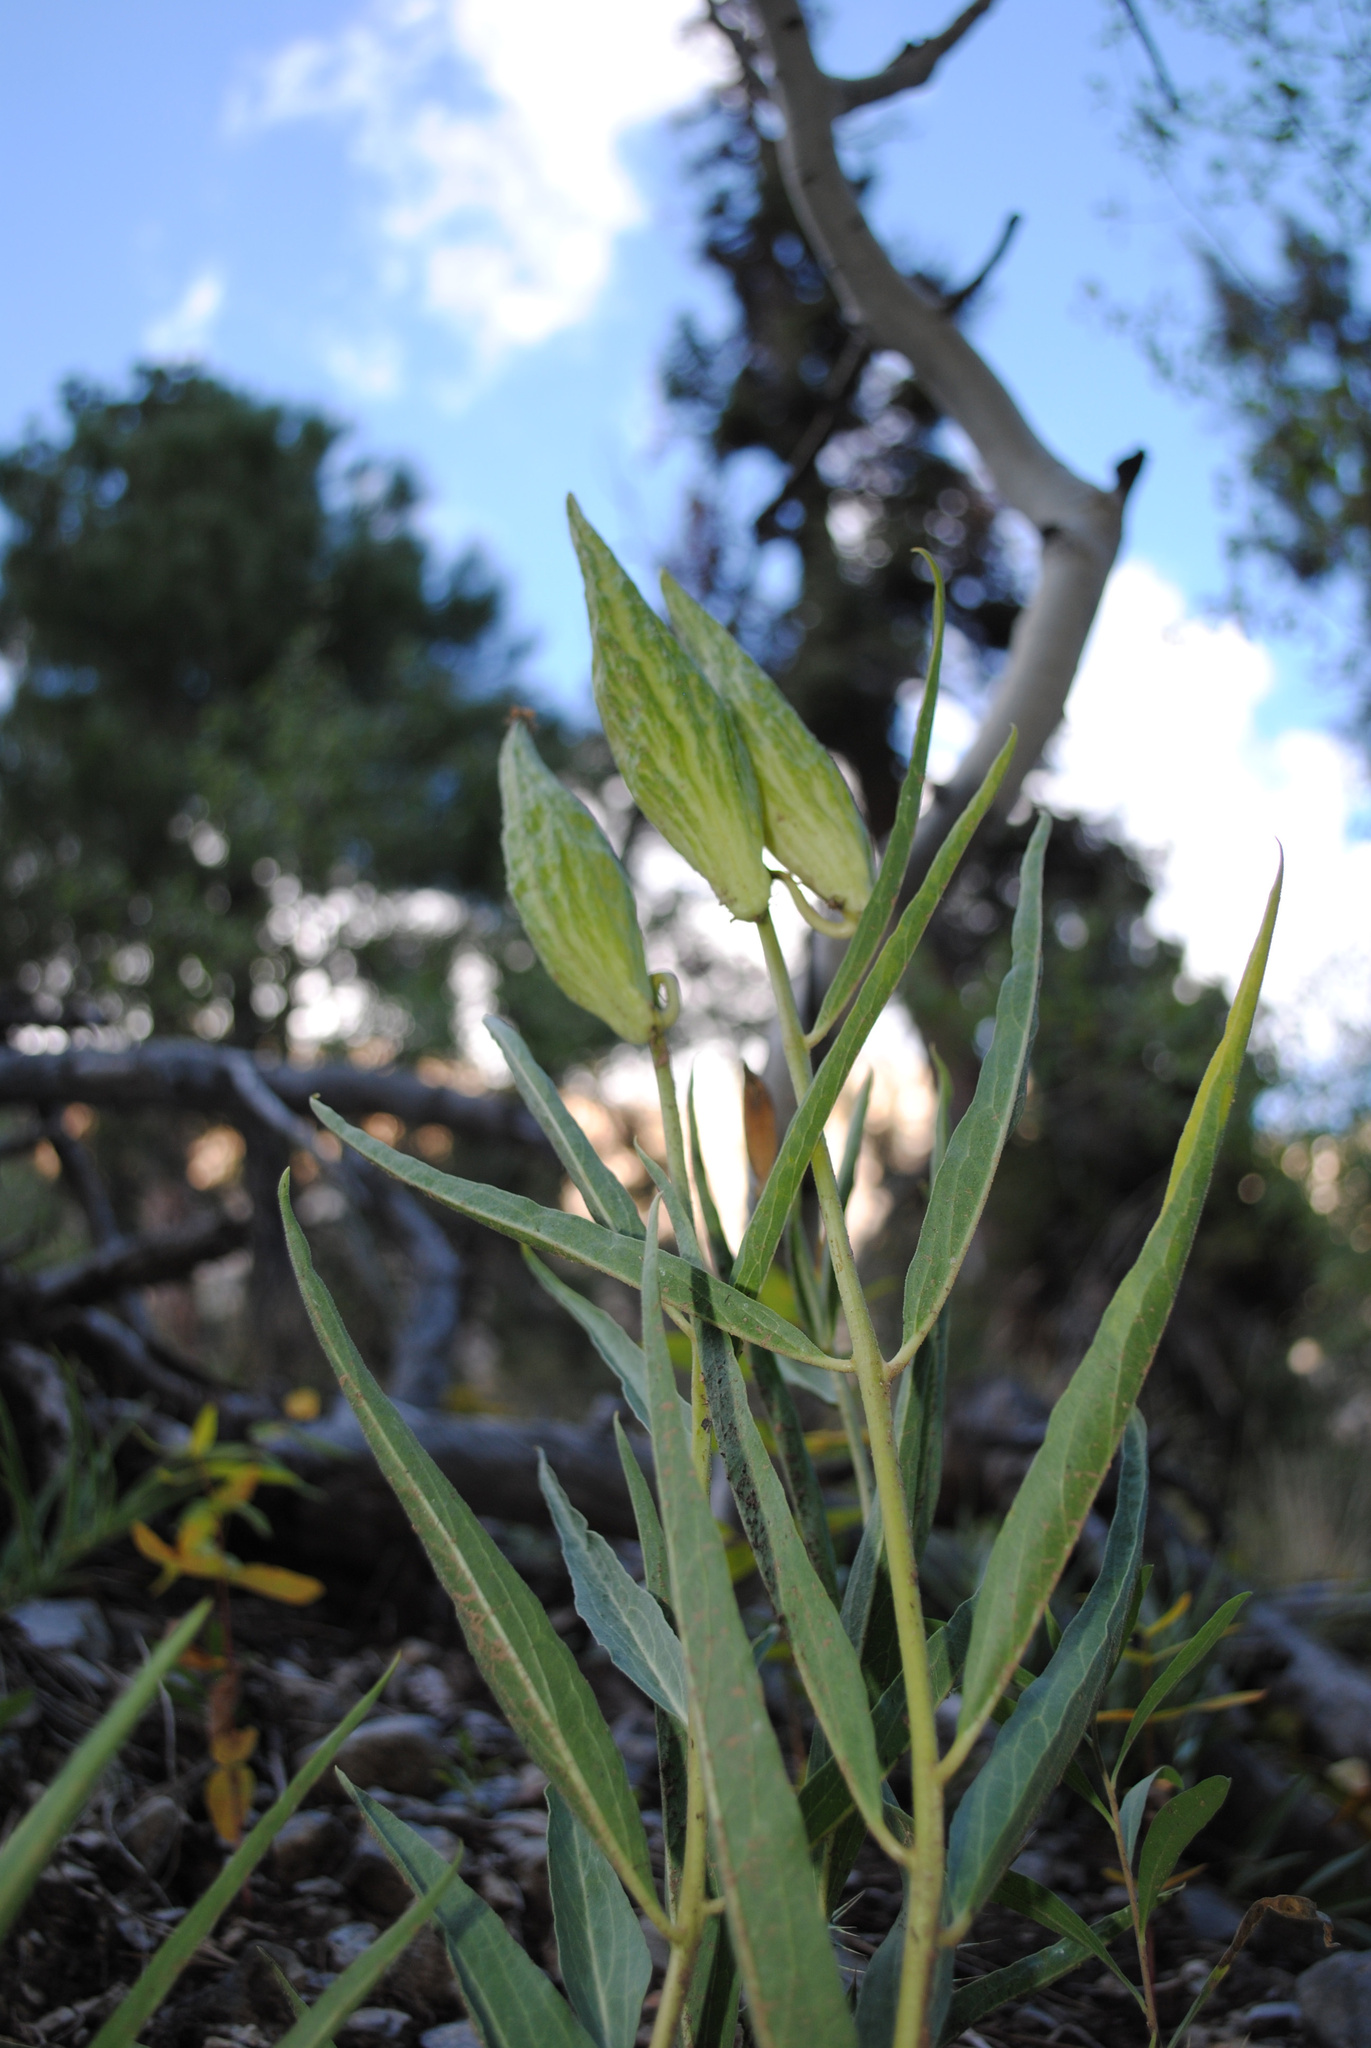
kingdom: Plantae
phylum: Tracheophyta
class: Magnoliopsida
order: Gentianales
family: Apocynaceae
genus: Asclepias
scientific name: Asclepias asperula
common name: Antelope horns
